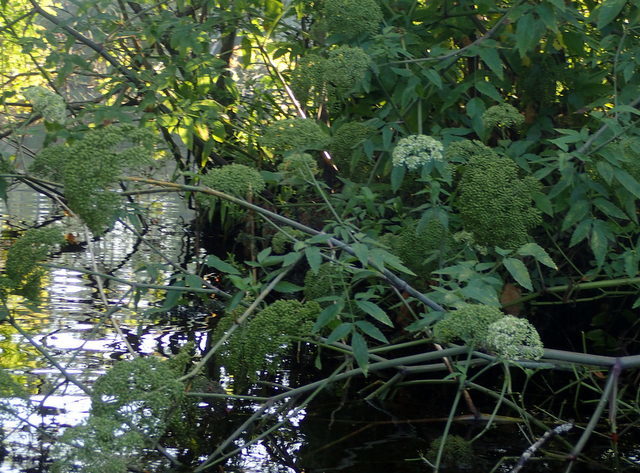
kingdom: Plantae
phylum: Tracheophyta
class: Magnoliopsida
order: Apiales
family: Apiaceae
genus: Cicuta
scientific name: Cicuta maculata
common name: Spotted cowbane
